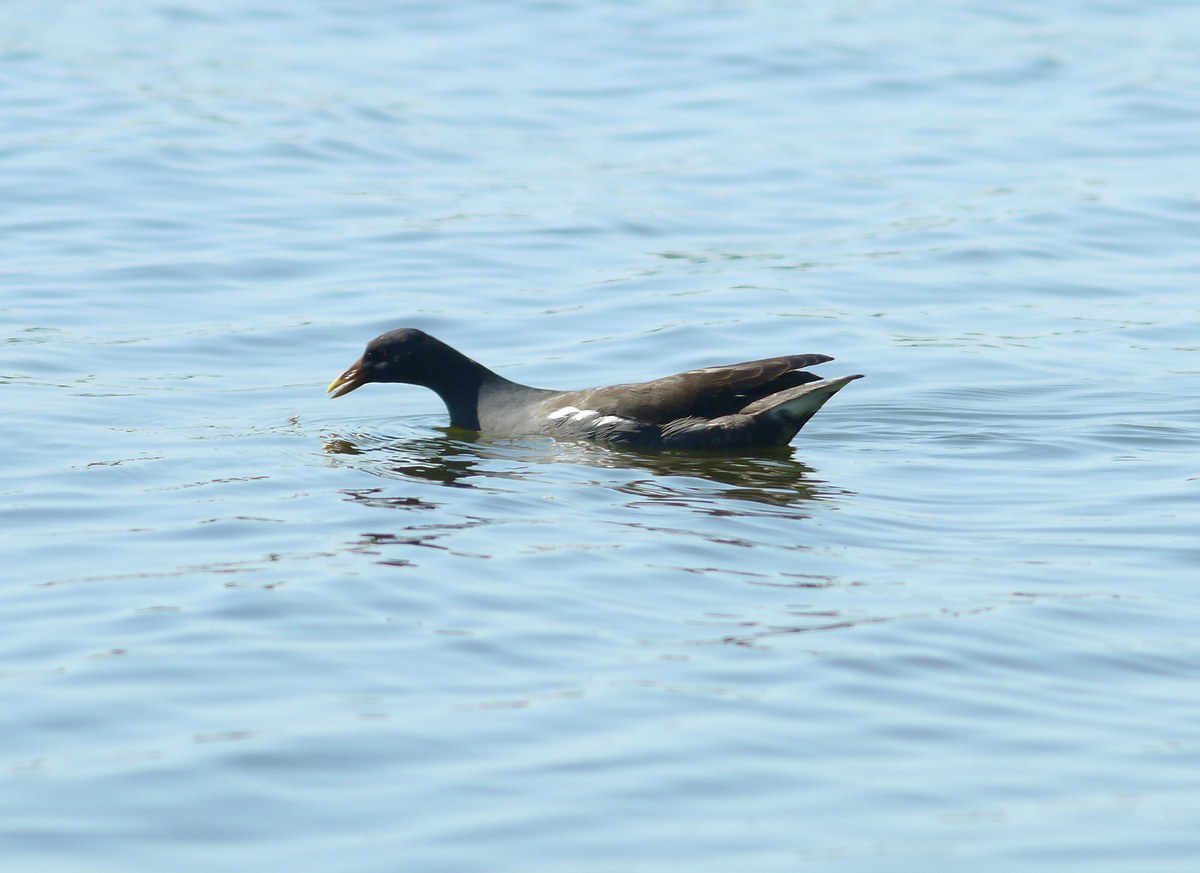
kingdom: Animalia
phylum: Chordata
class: Aves
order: Gruiformes
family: Rallidae
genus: Gallinula
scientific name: Gallinula chloropus
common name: Common moorhen
